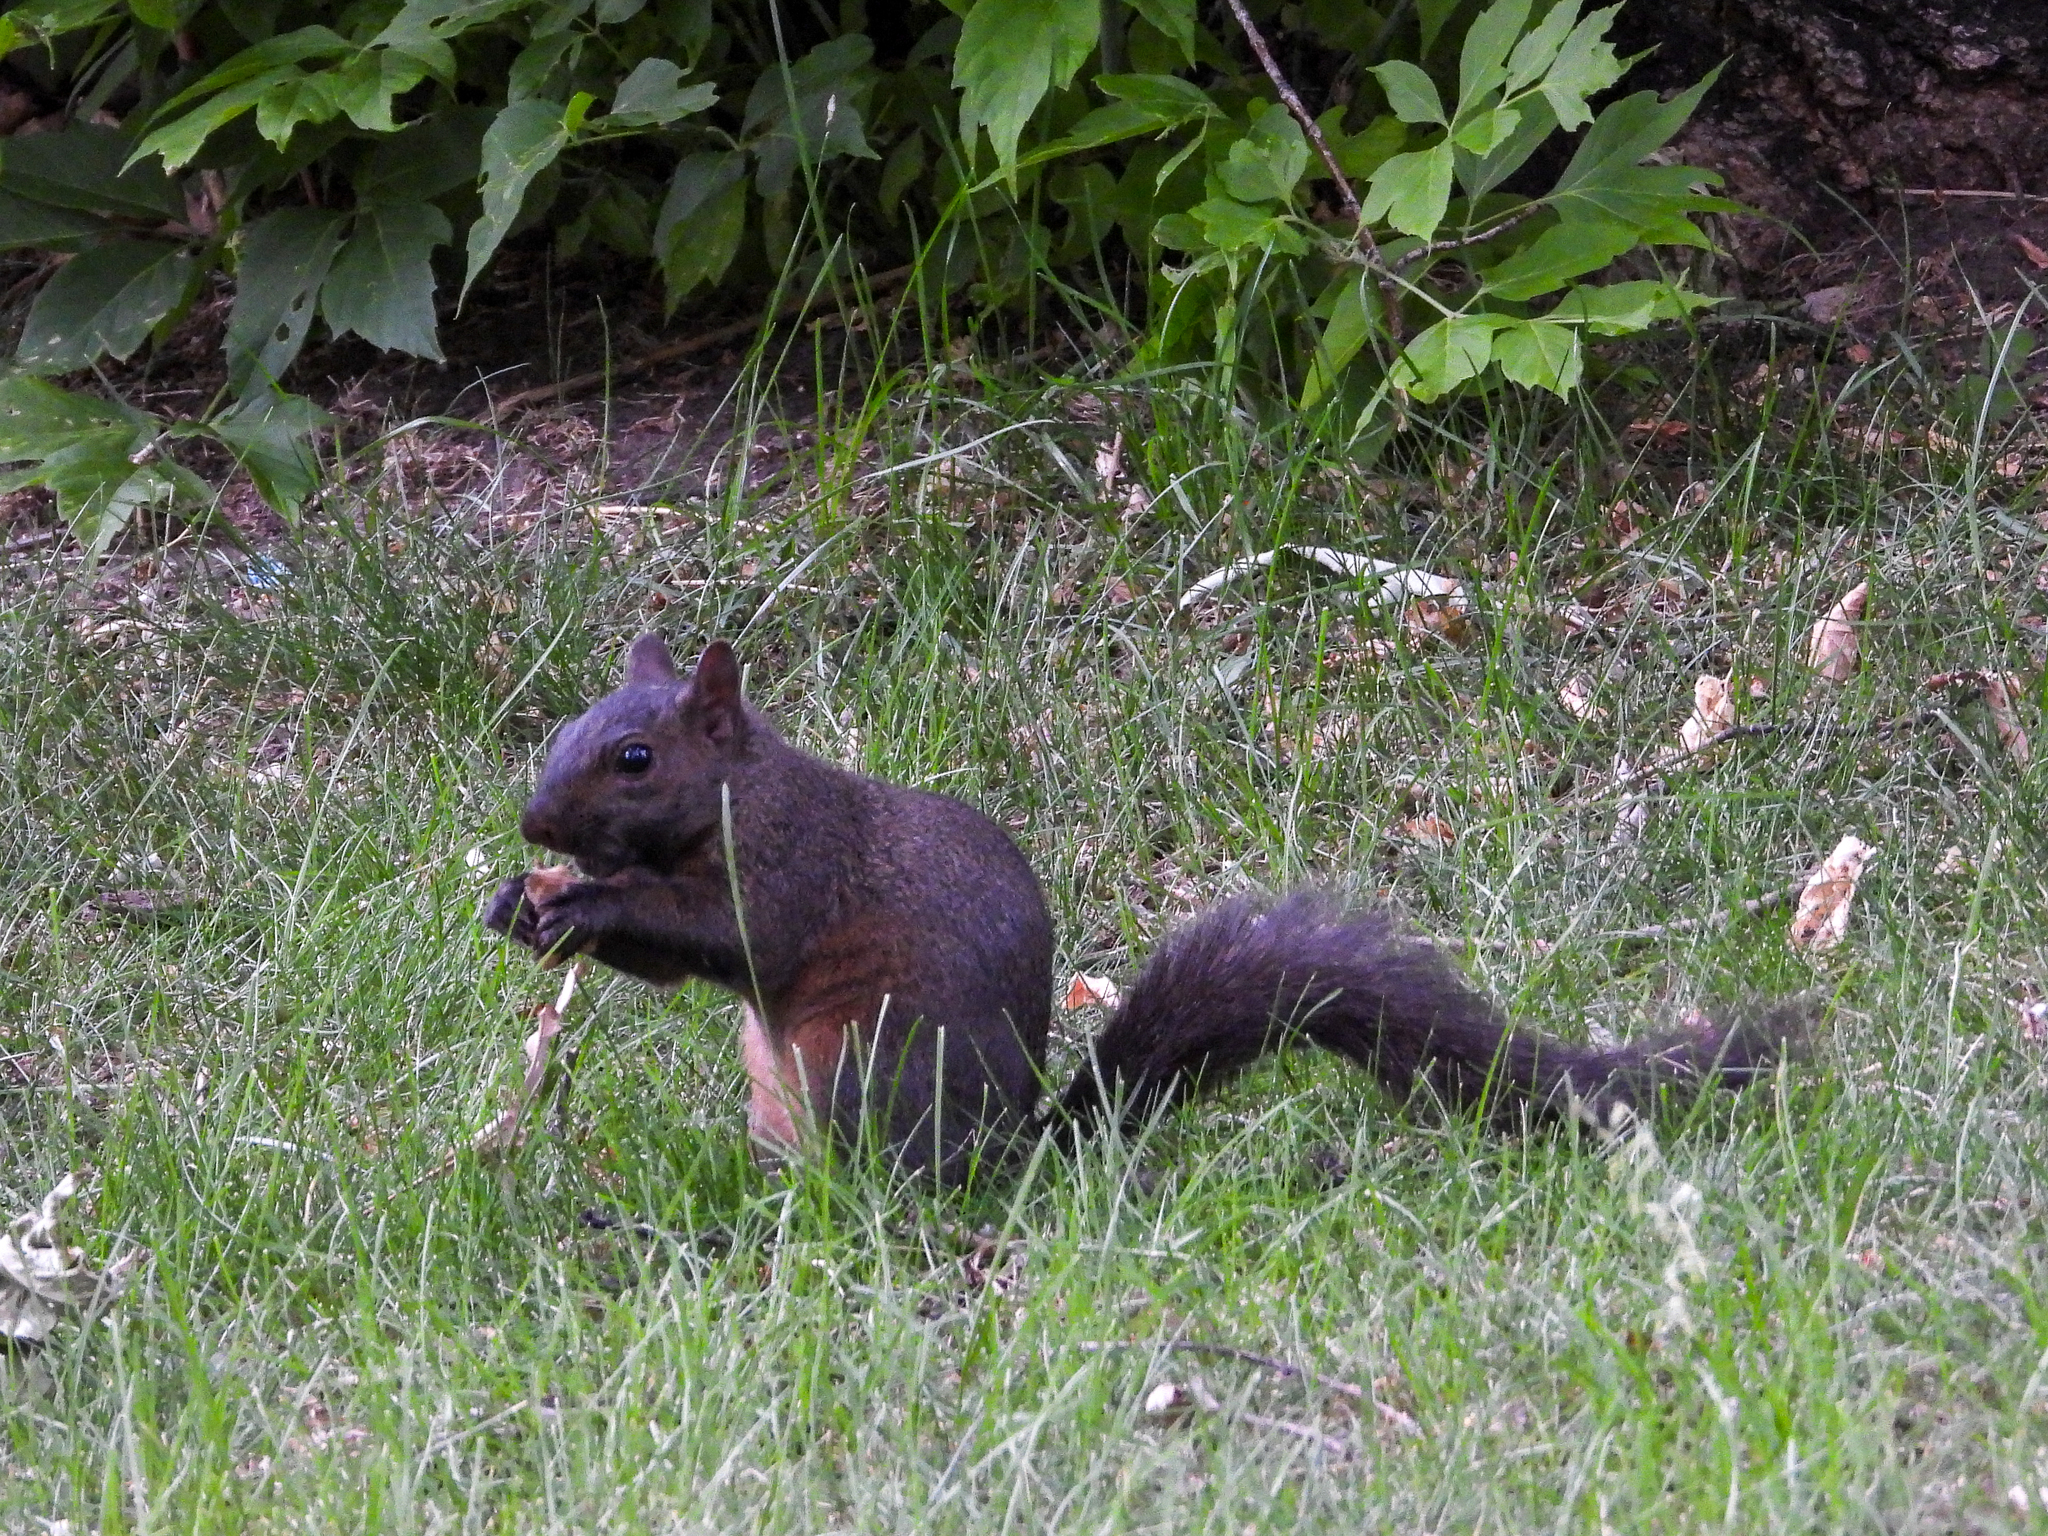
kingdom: Animalia
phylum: Chordata
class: Mammalia
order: Rodentia
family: Sciuridae
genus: Sciurus
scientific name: Sciurus carolinensis
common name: Eastern gray squirrel
